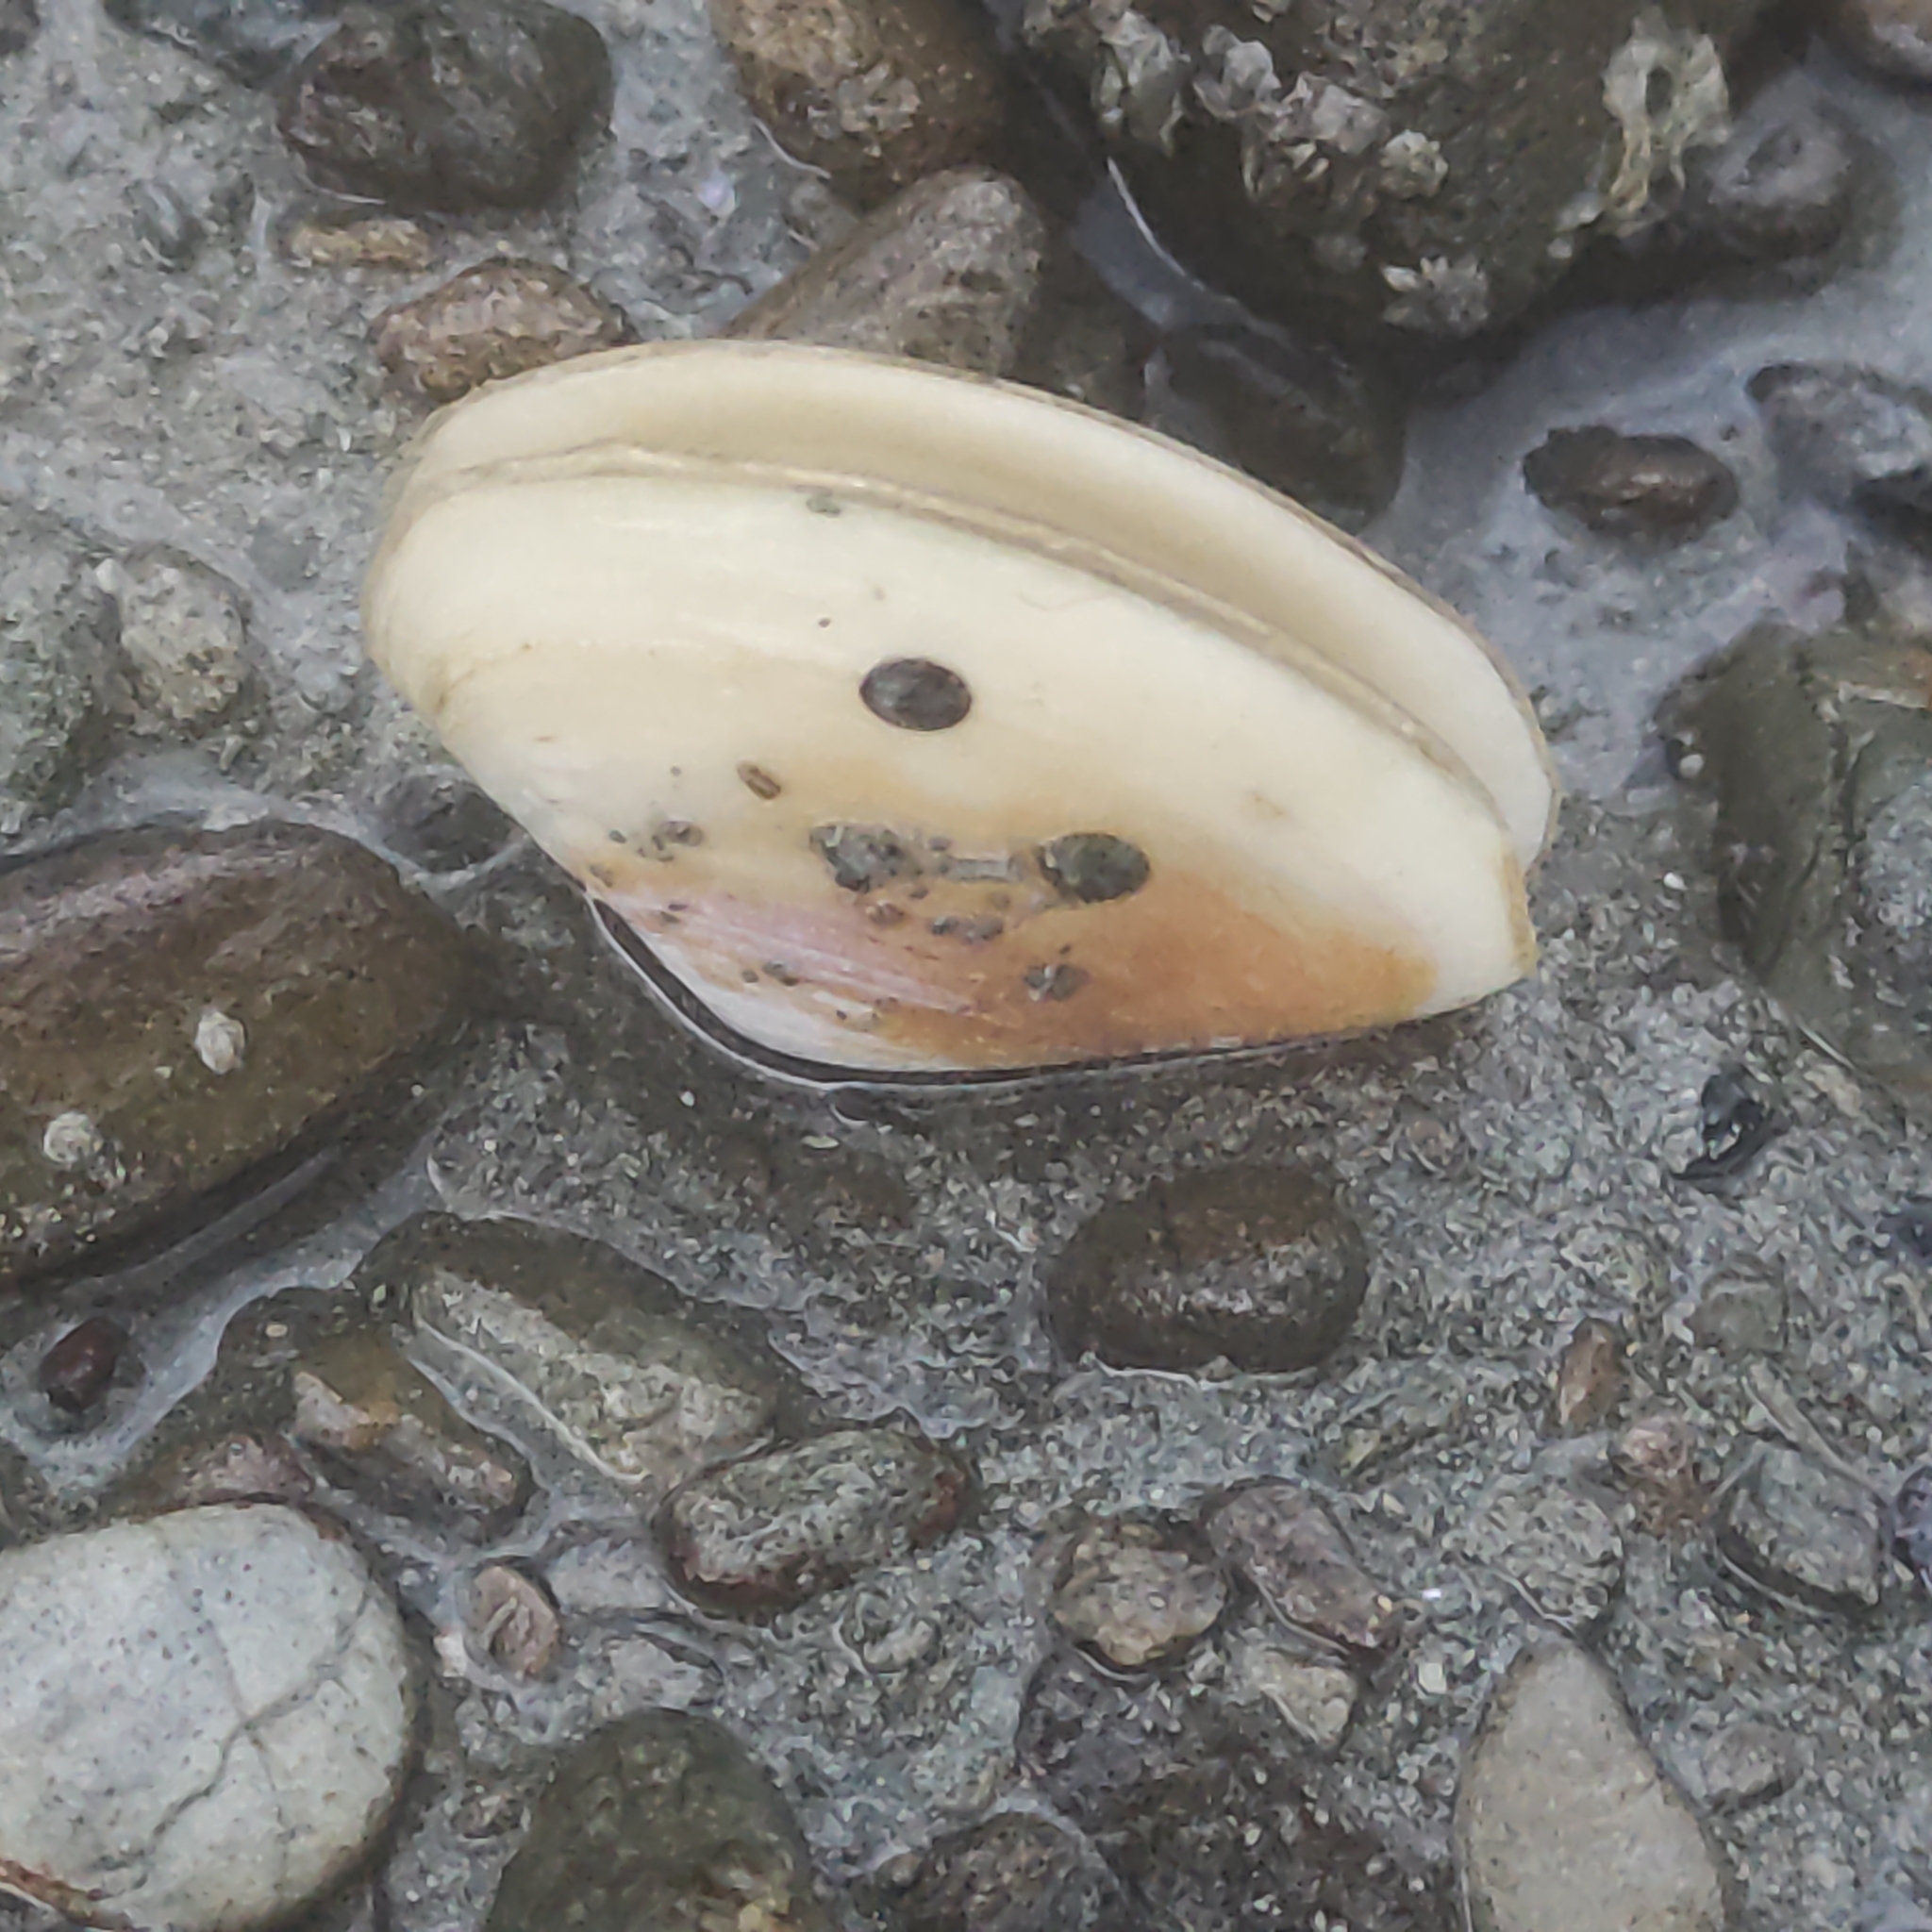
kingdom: Animalia
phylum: Mollusca
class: Bivalvia
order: Venerida
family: Mesodesmatidae
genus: Paphies
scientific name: Paphies australis
